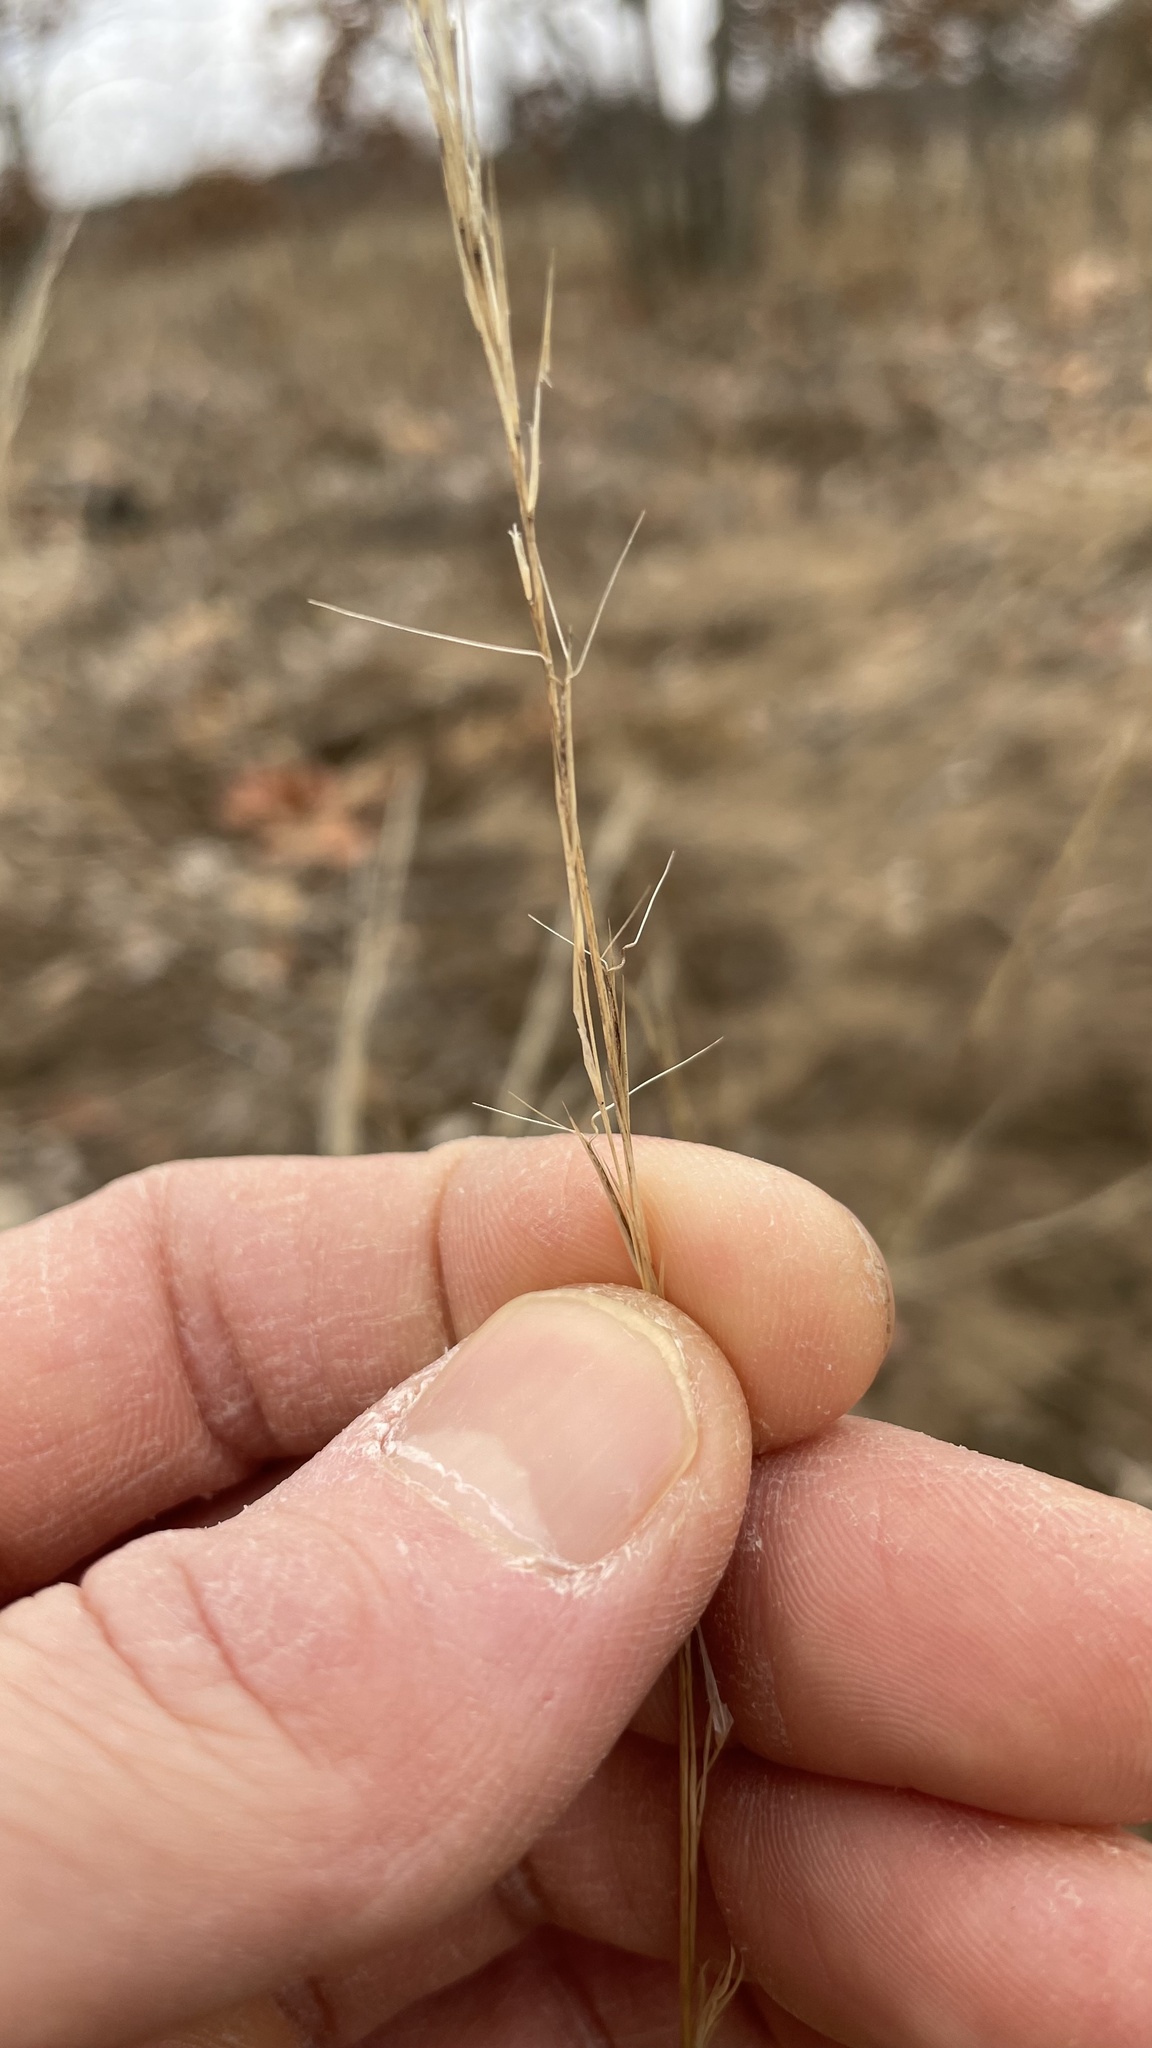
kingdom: Plantae
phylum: Tracheophyta
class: Liliopsida
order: Poales
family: Poaceae
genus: Aristida
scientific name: Aristida basiramea
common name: Forked three-awned grass
